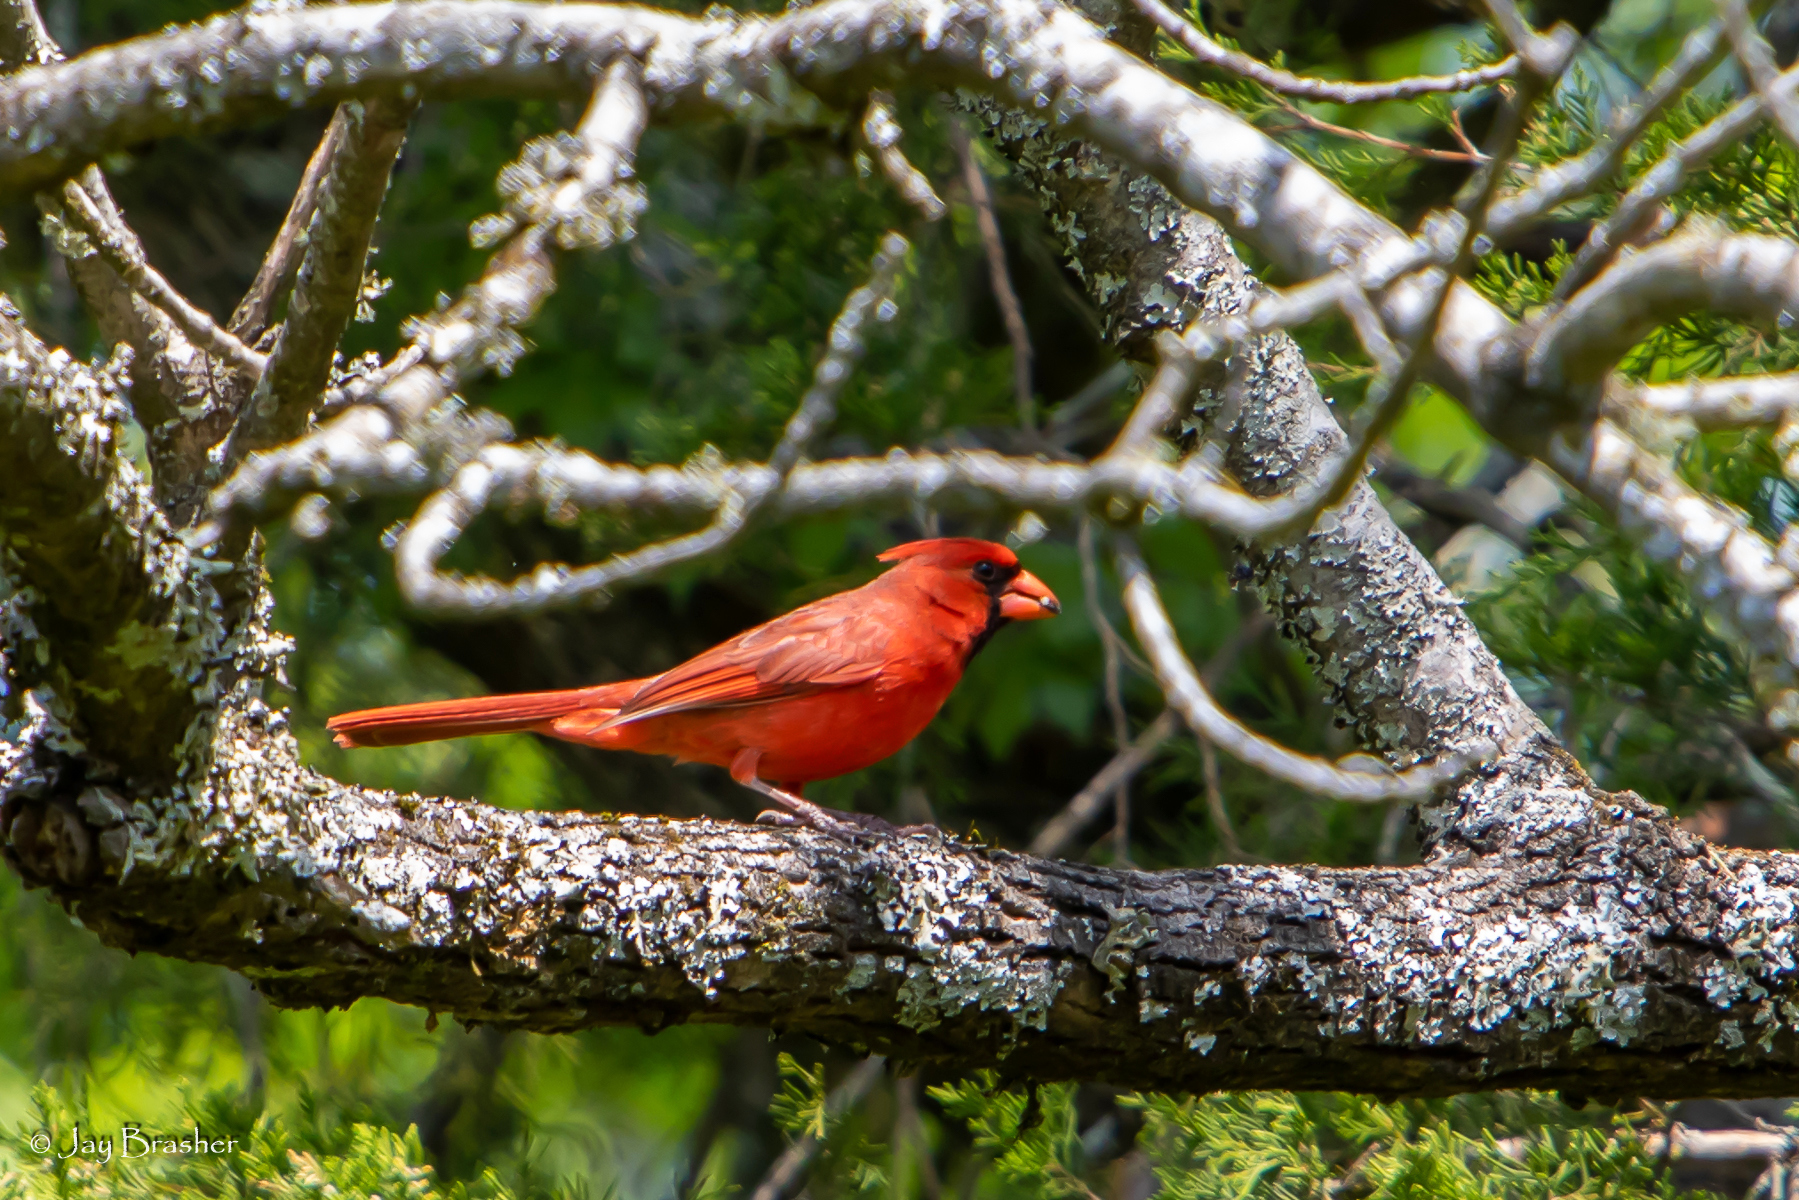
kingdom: Animalia
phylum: Chordata
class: Aves
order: Passeriformes
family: Cardinalidae
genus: Cardinalis
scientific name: Cardinalis cardinalis
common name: Northern cardinal
